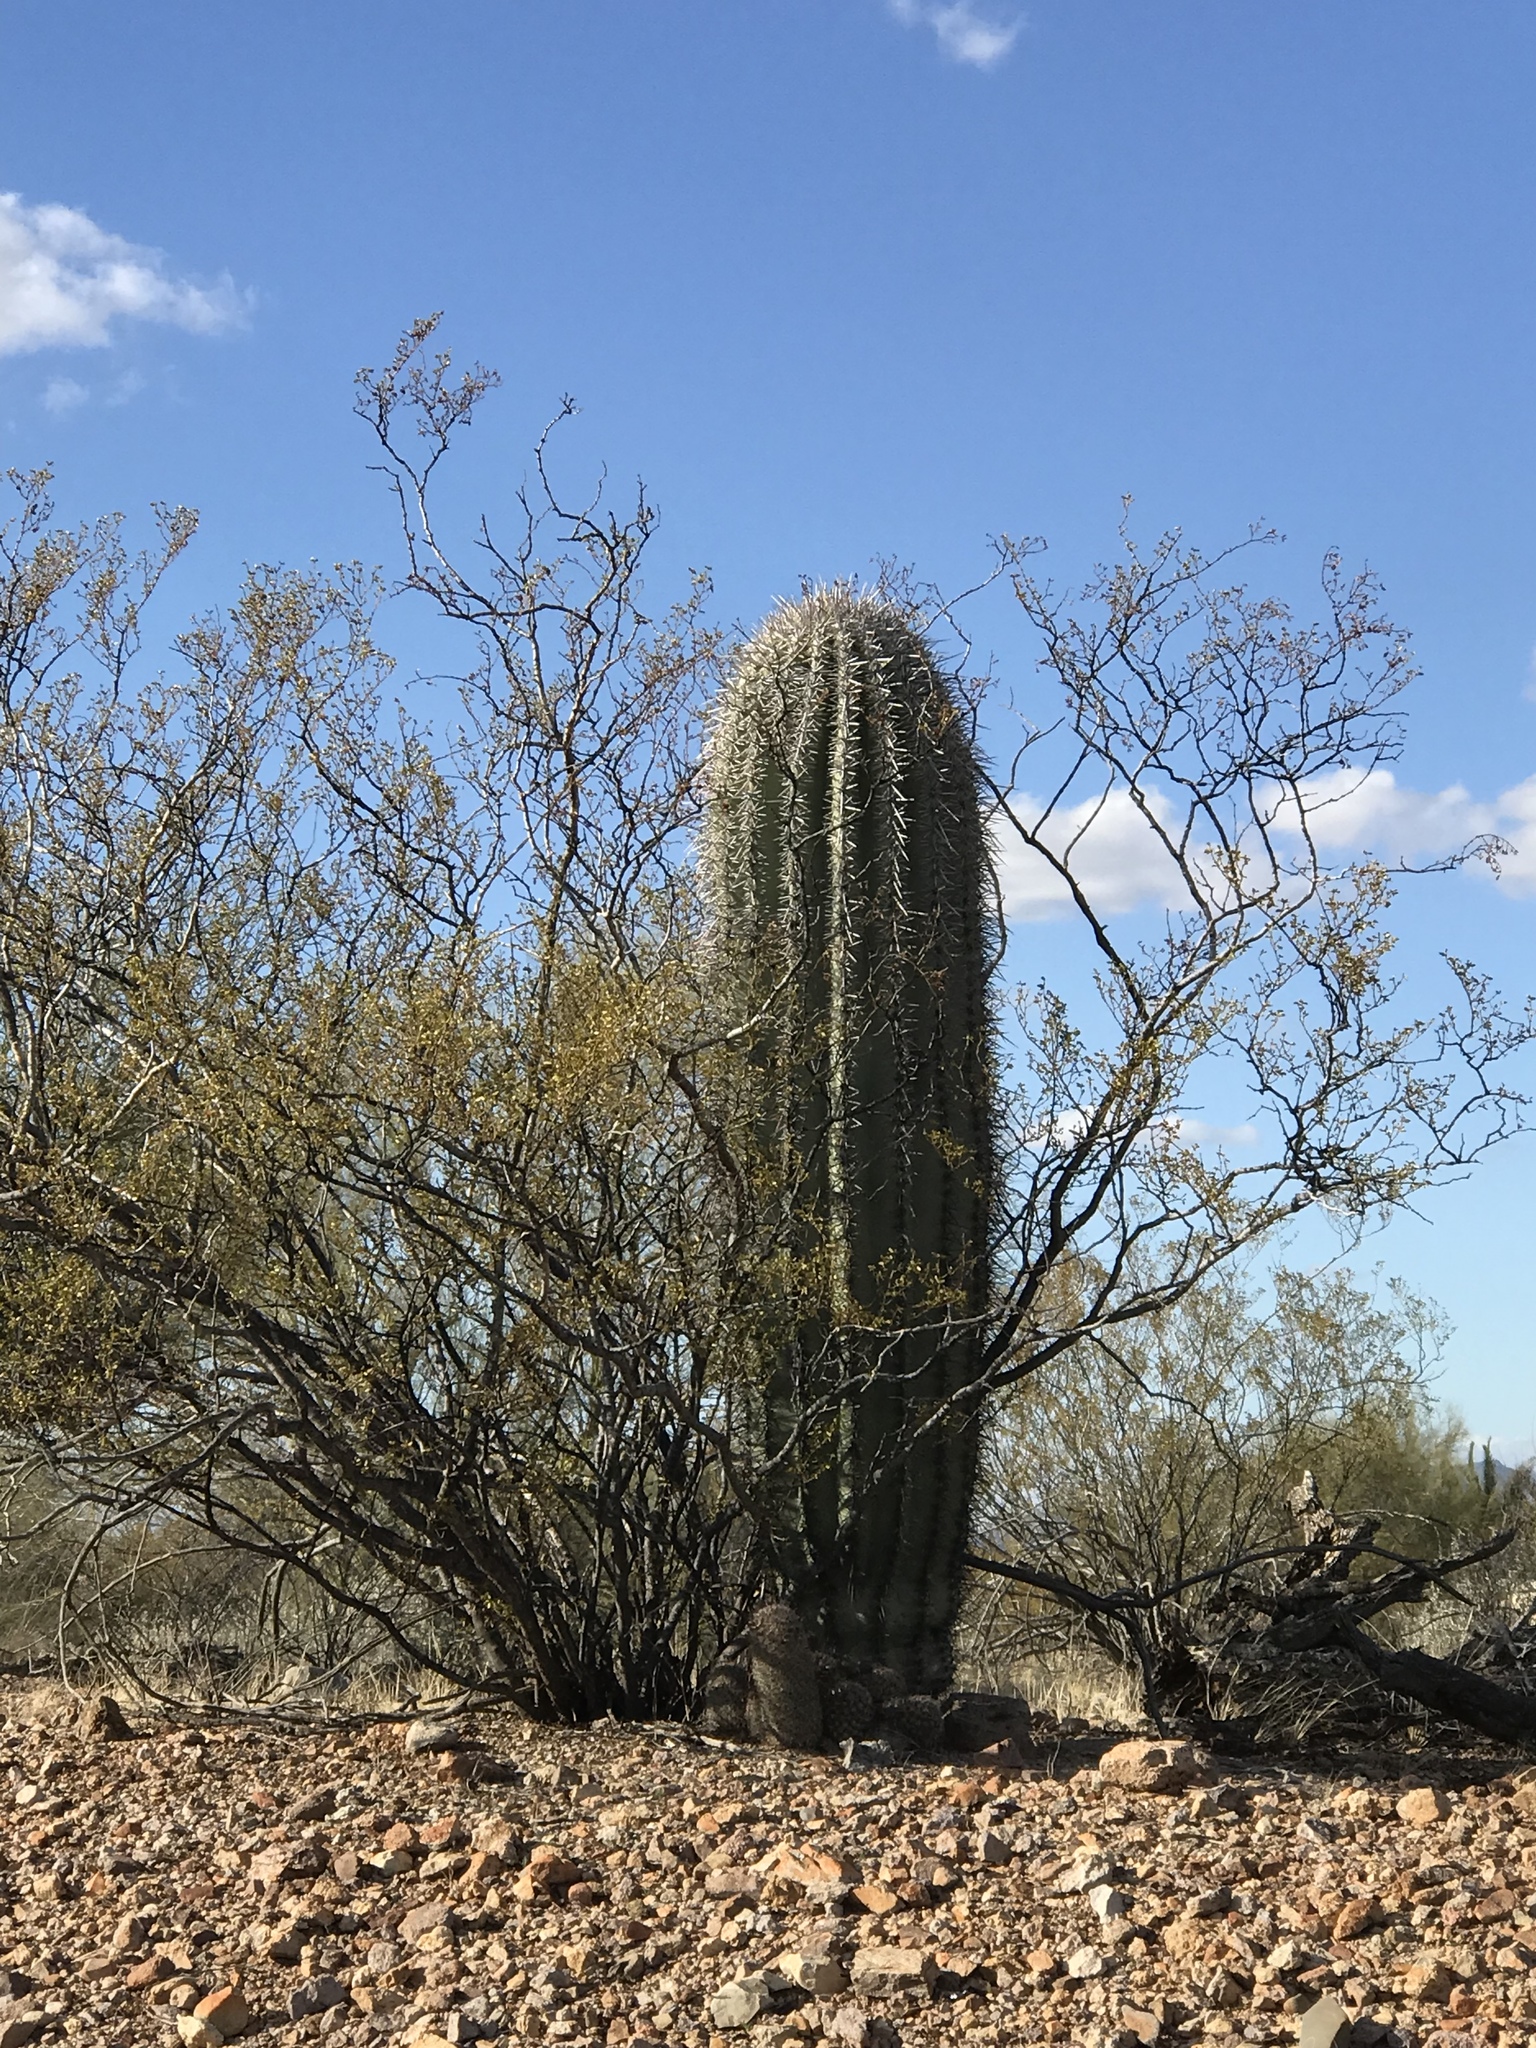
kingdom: Plantae
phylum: Tracheophyta
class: Magnoliopsida
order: Caryophyllales
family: Cactaceae
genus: Carnegiea
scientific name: Carnegiea gigantea
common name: Saguaro
